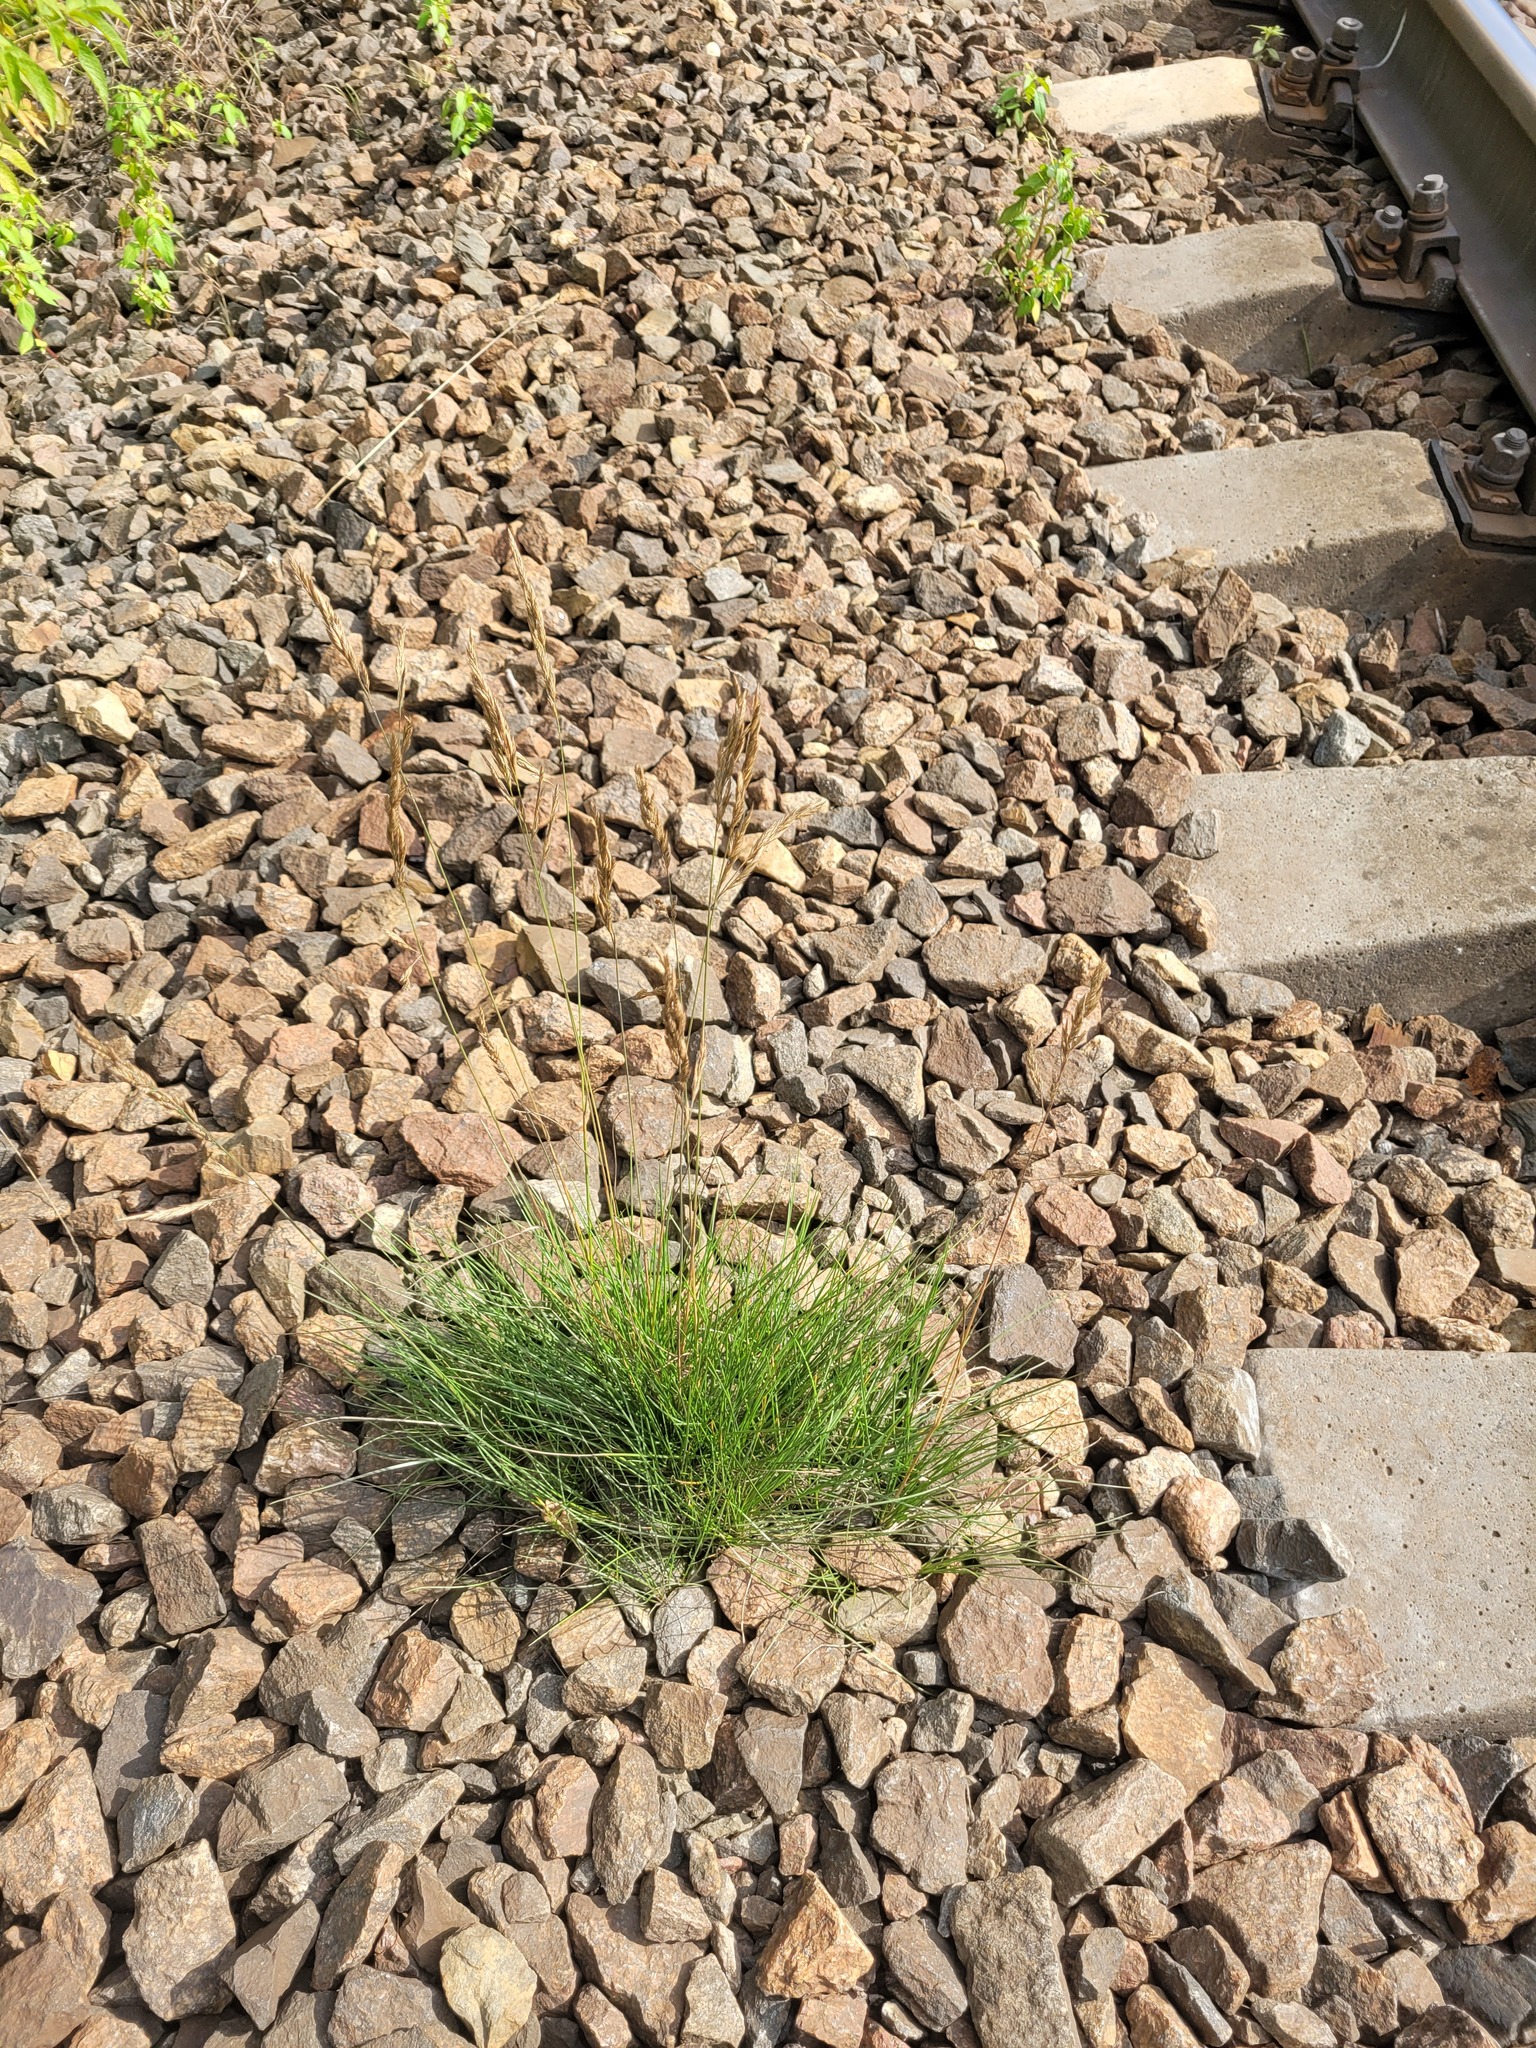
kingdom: Plantae
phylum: Tracheophyta
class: Liliopsida
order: Poales
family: Poaceae
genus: Festuca
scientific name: Festuca rubra
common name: Red fescue
